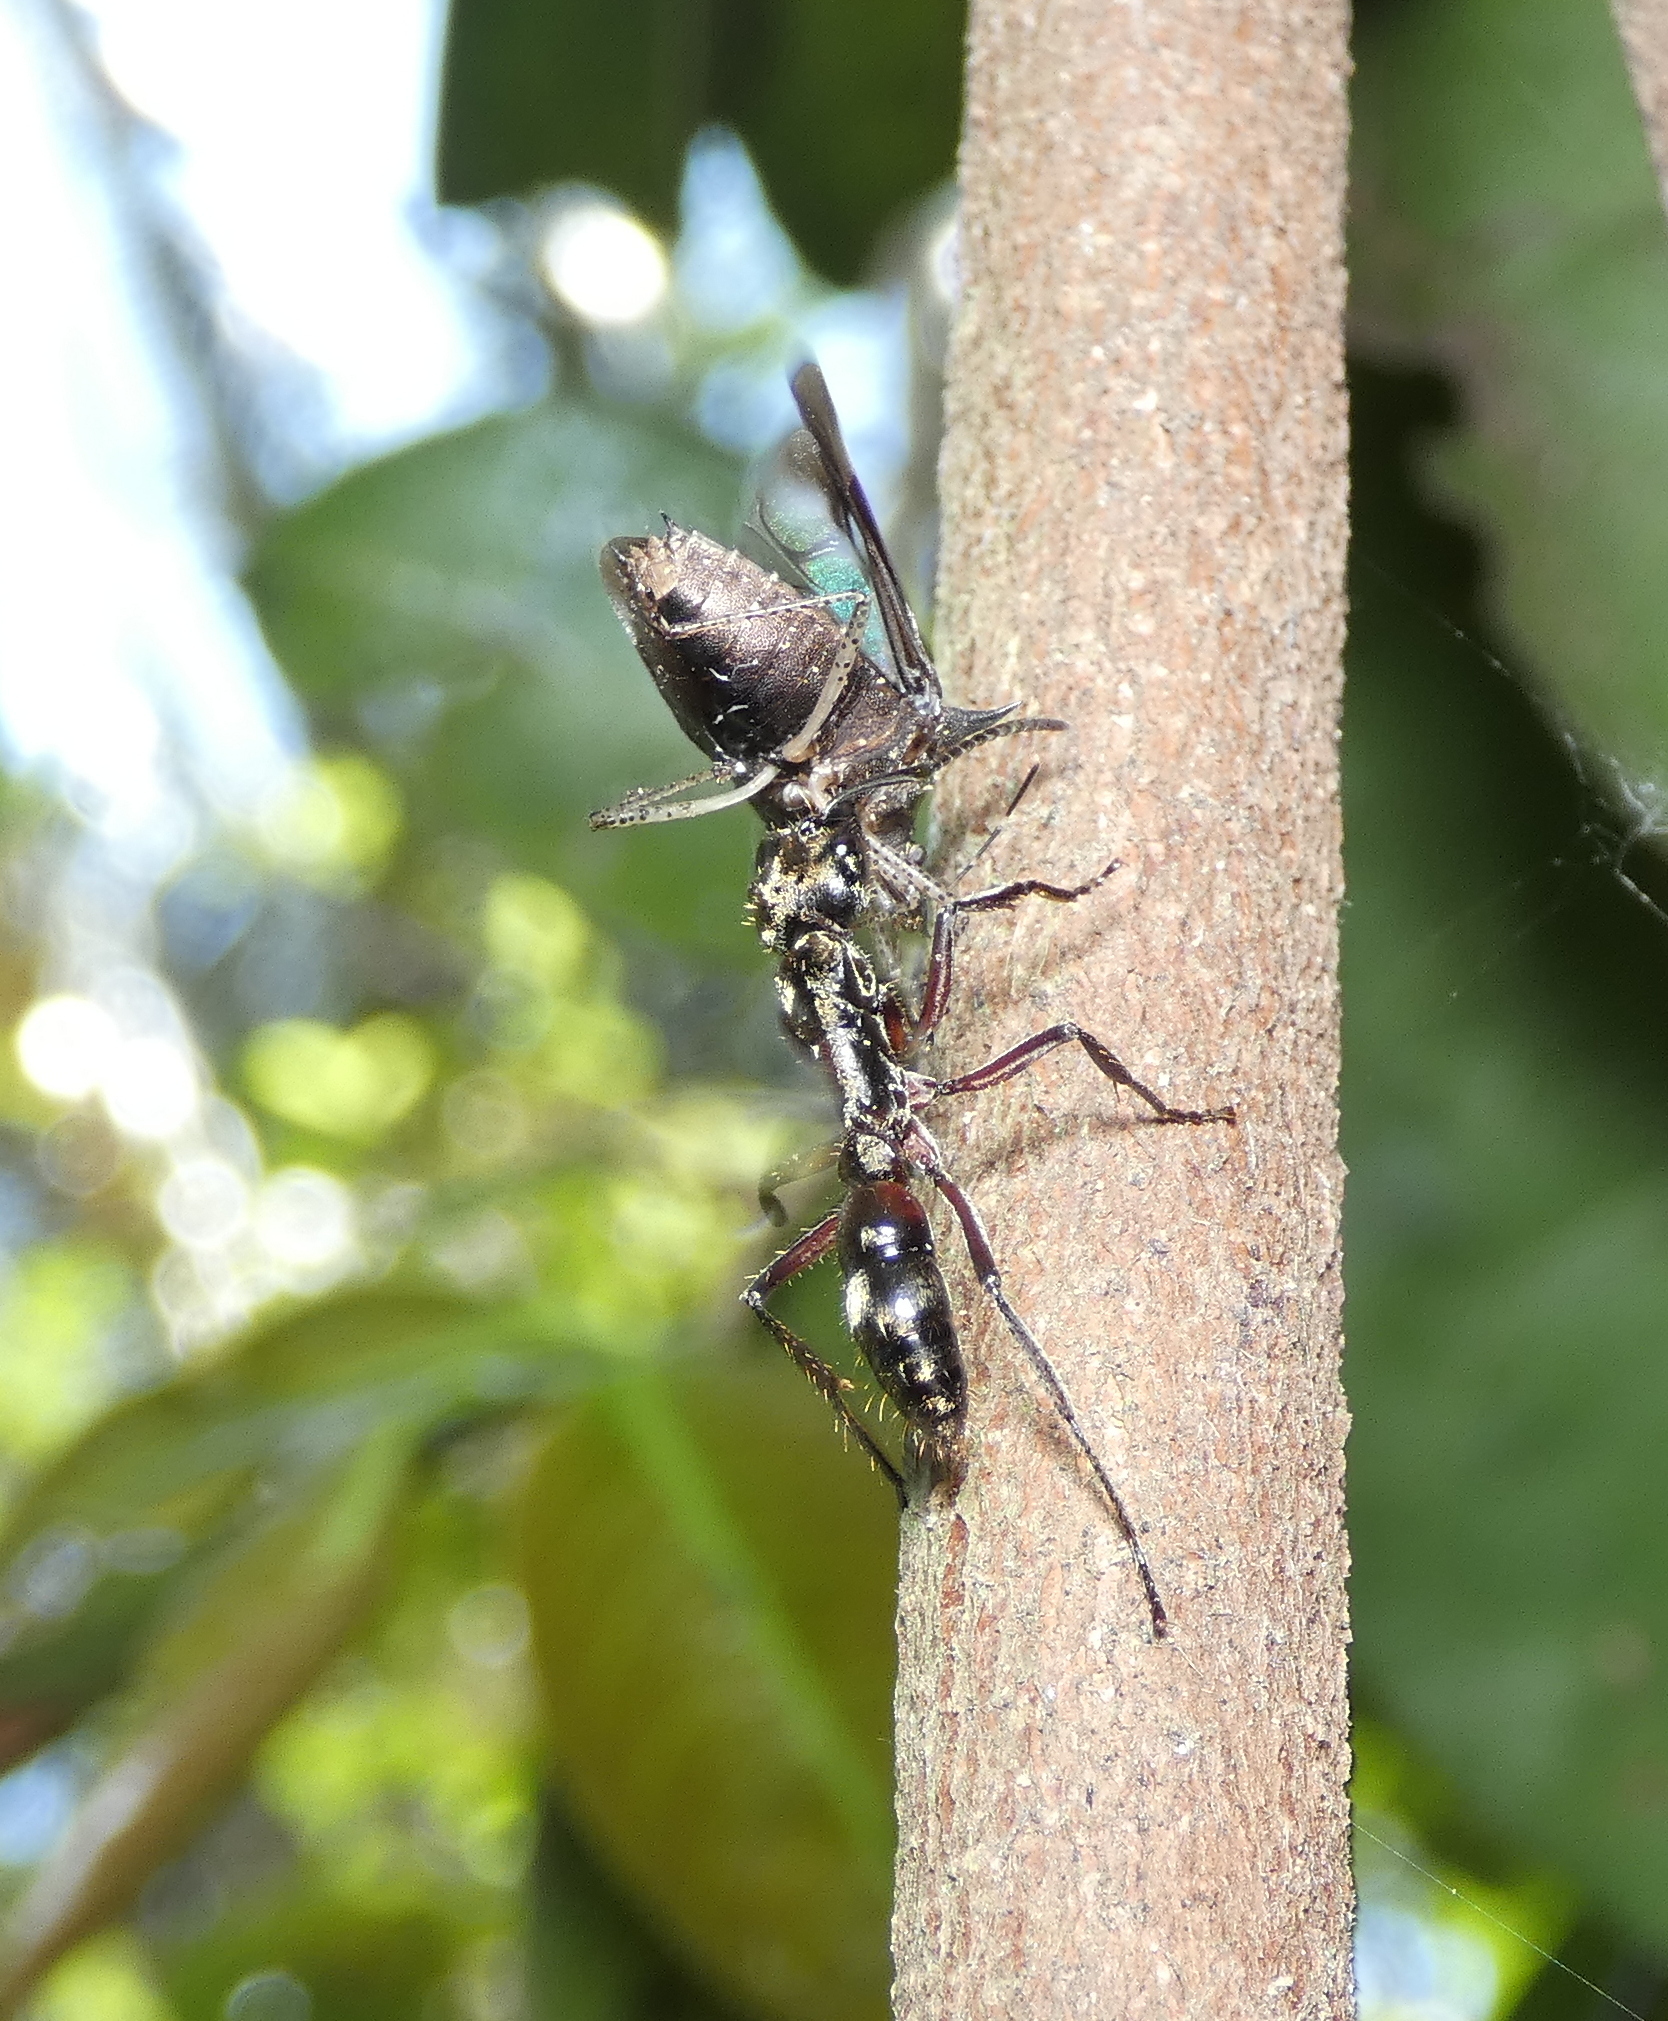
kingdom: Animalia
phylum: Arthropoda
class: Insecta
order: Hymenoptera
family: Formicidae
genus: Pachycondyla
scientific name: Pachycondyla villosa
